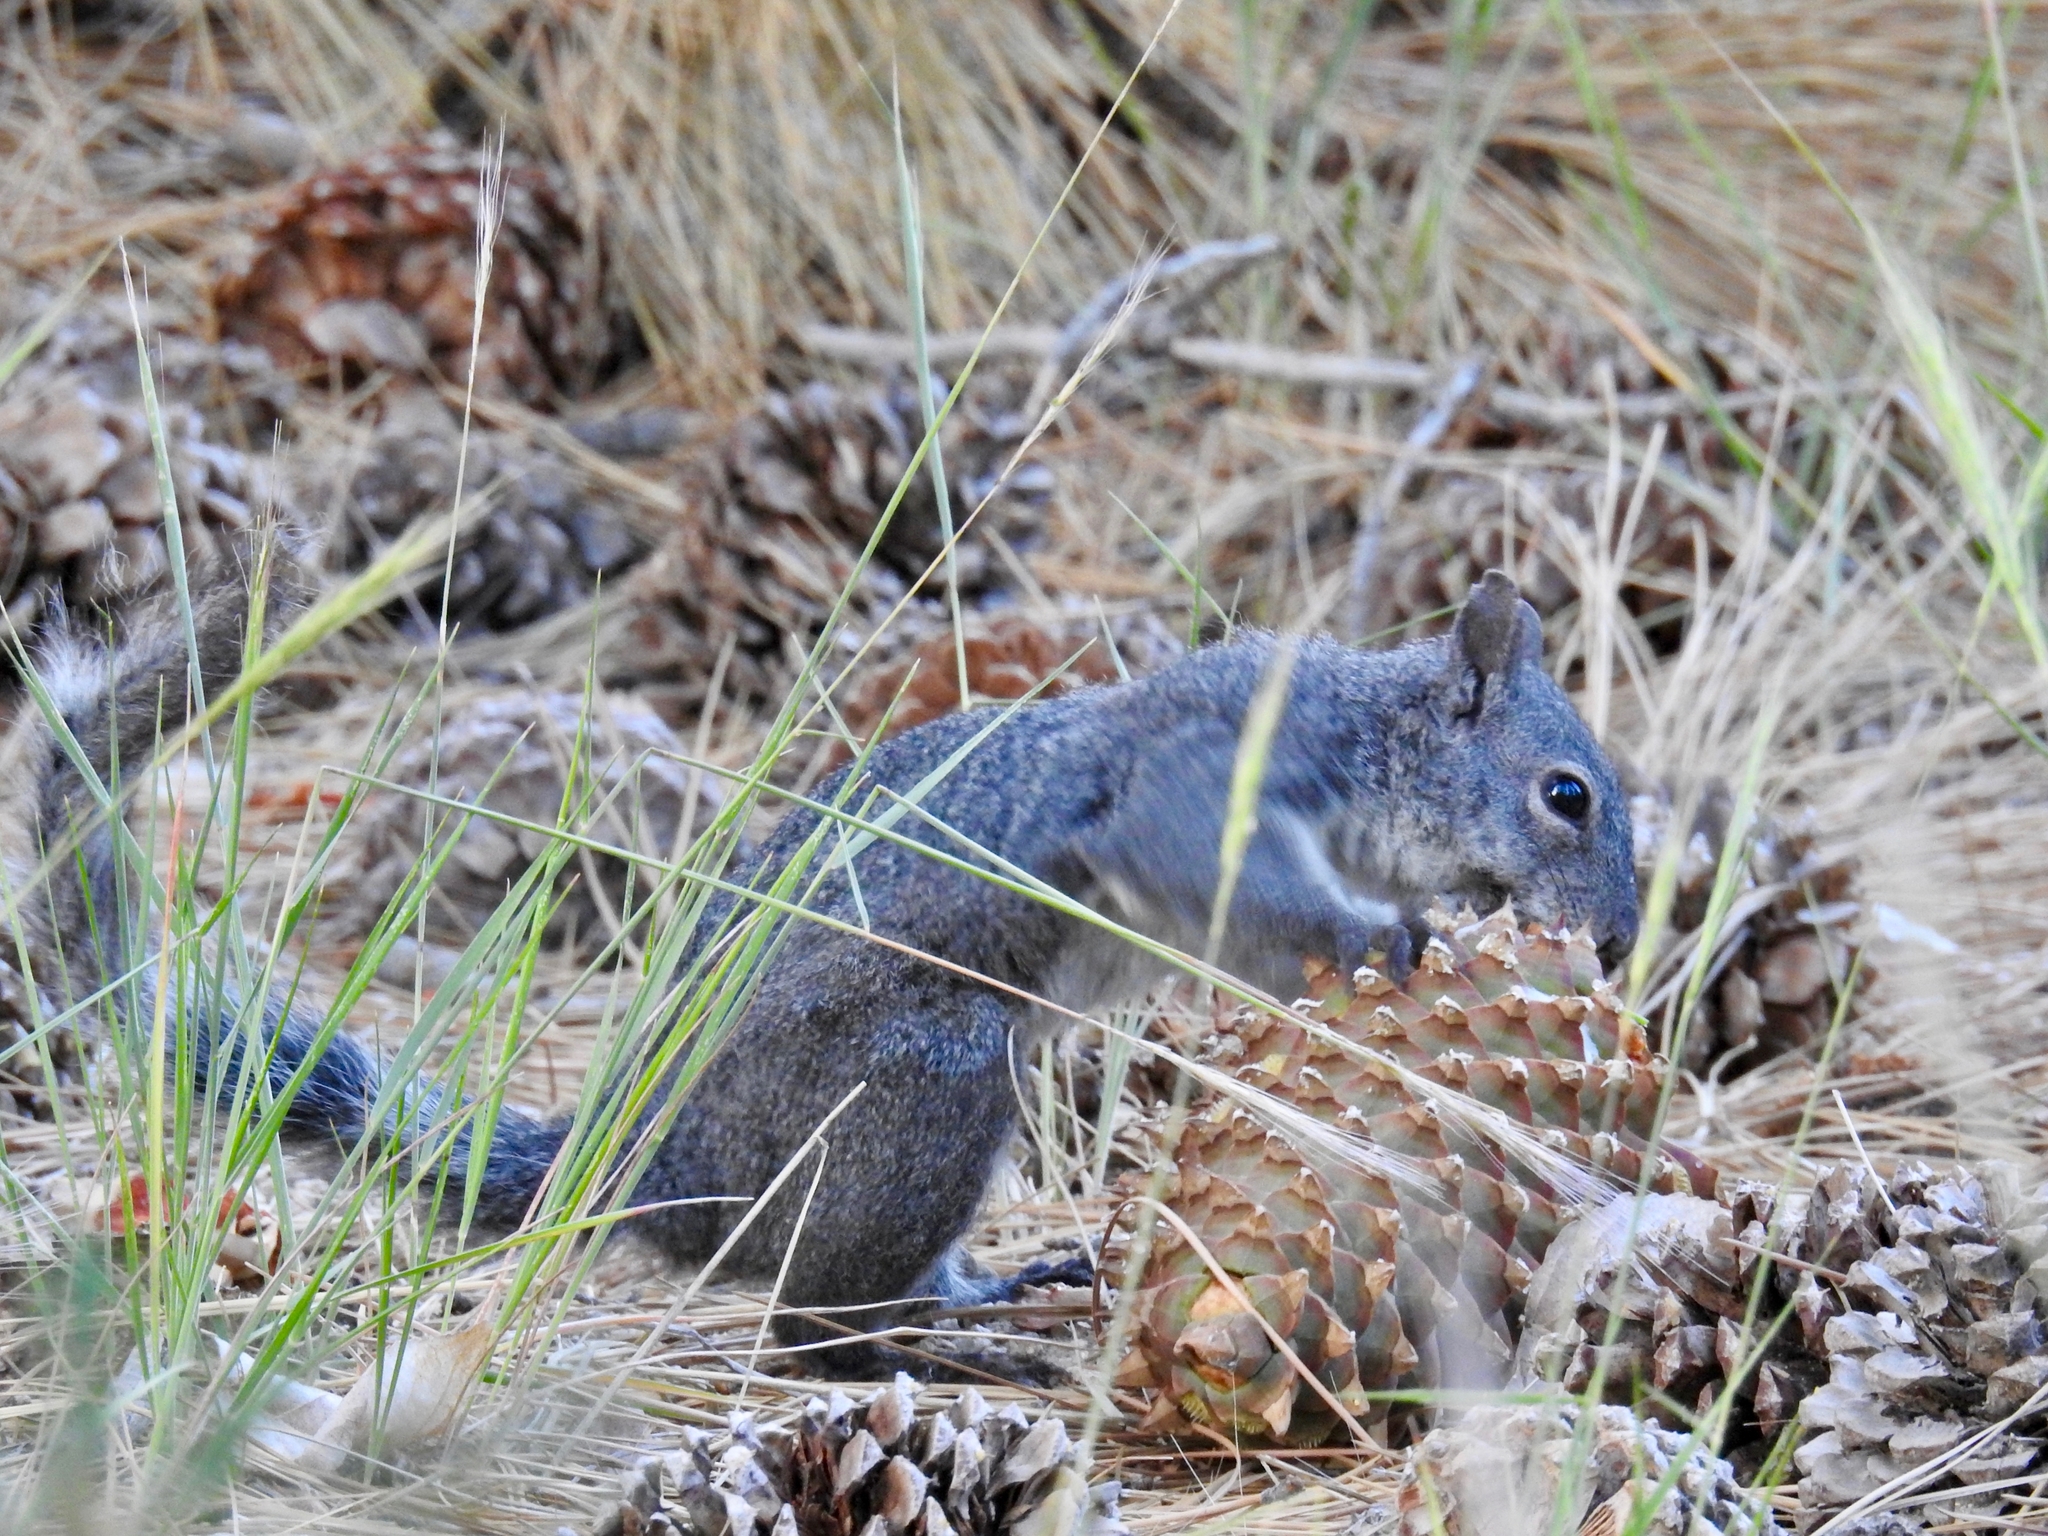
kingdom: Animalia
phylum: Chordata
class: Mammalia
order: Rodentia
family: Sciuridae
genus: Sciurus
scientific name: Sciurus griseus
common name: Western gray squirrel
